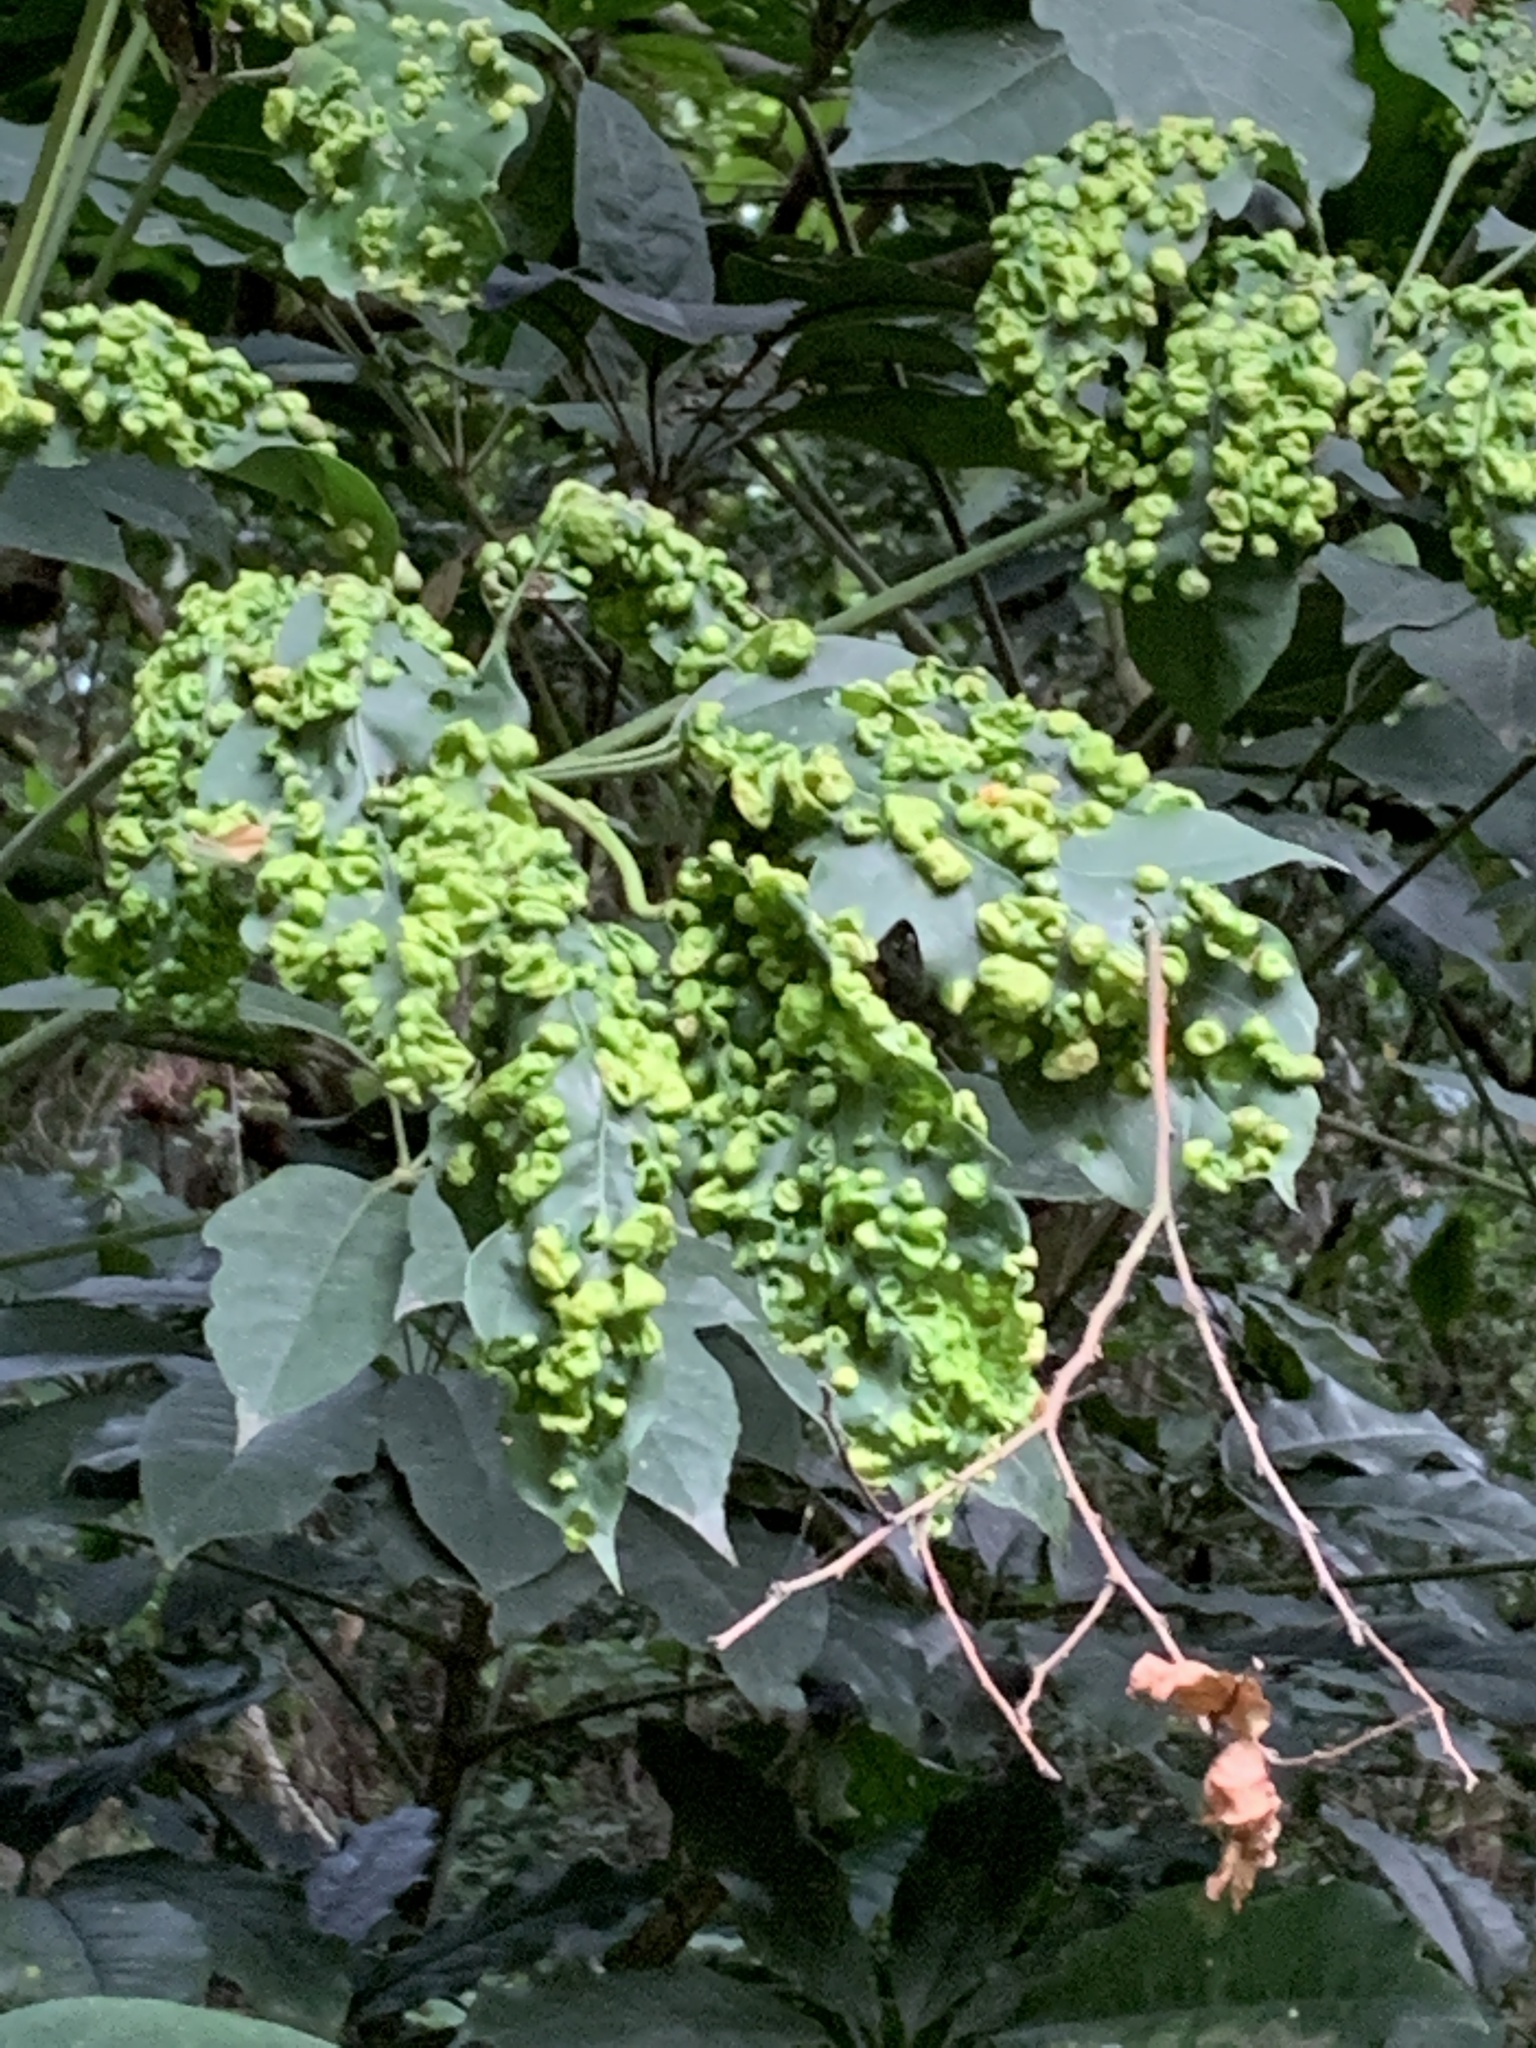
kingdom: Plantae
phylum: Tracheophyta
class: Magnoliopsida
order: Apiales
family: Araliaceae
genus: Heptapleurum
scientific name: Heptapleurum heptaphyllum
